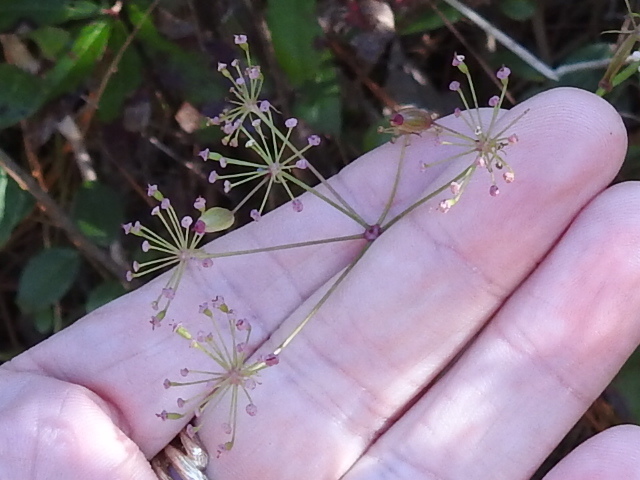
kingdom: Plantae
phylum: Tracheophyta
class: Magnoliopsida
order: Apiales
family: Apiaceae
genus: Oxypolis
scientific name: Oxypolis rigidior
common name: Cowbane
